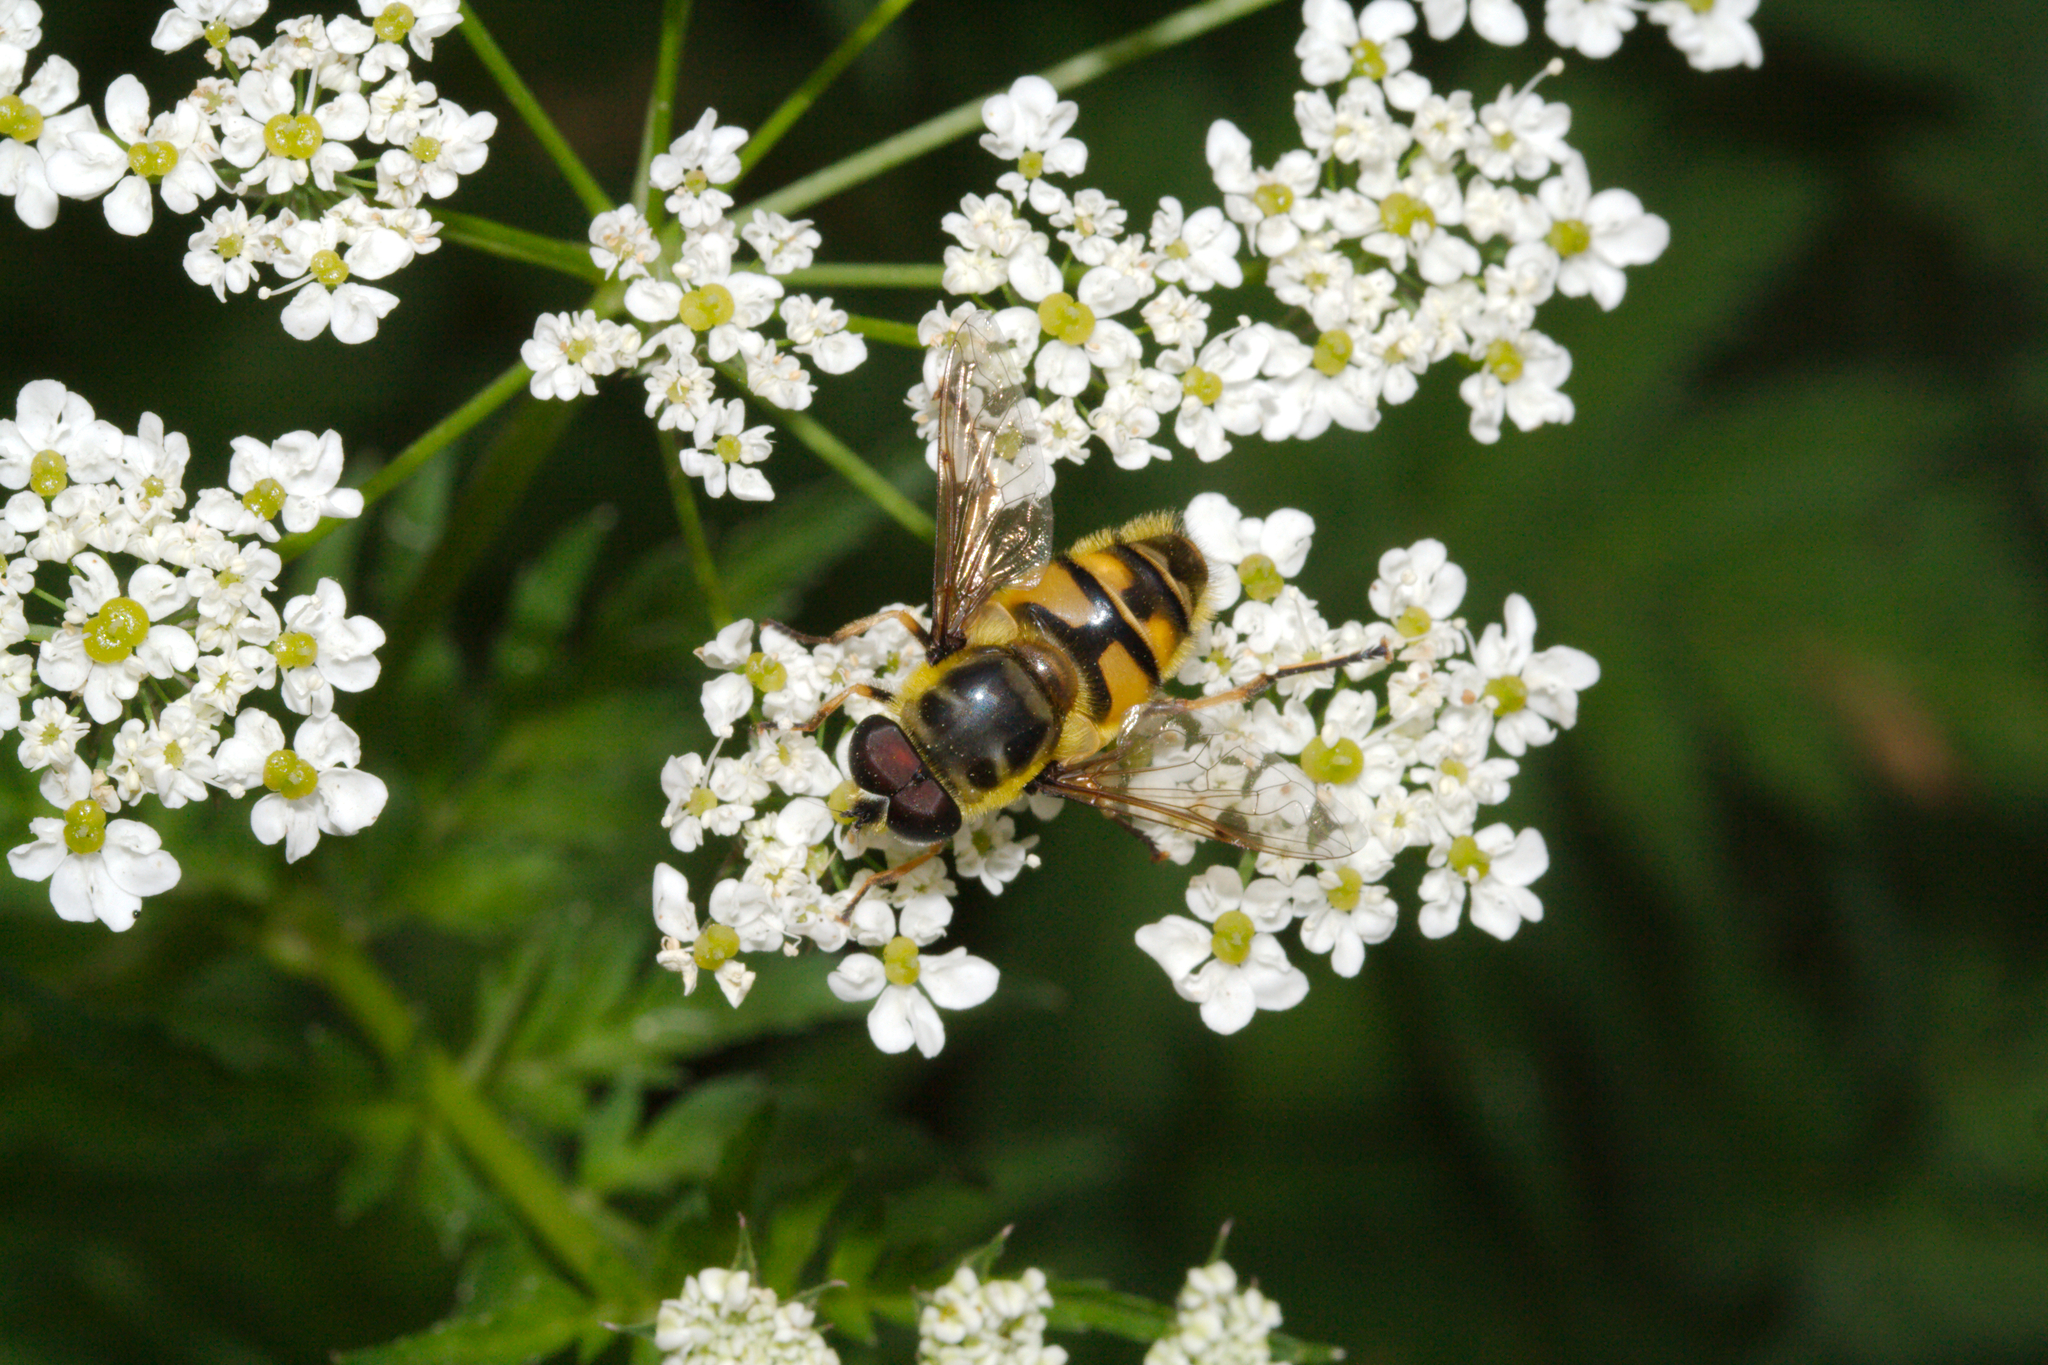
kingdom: Animalia
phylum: Arthropoda
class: Insecta
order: Diptera
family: Syrphidae
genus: Myathropa
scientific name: Myathropa florea
